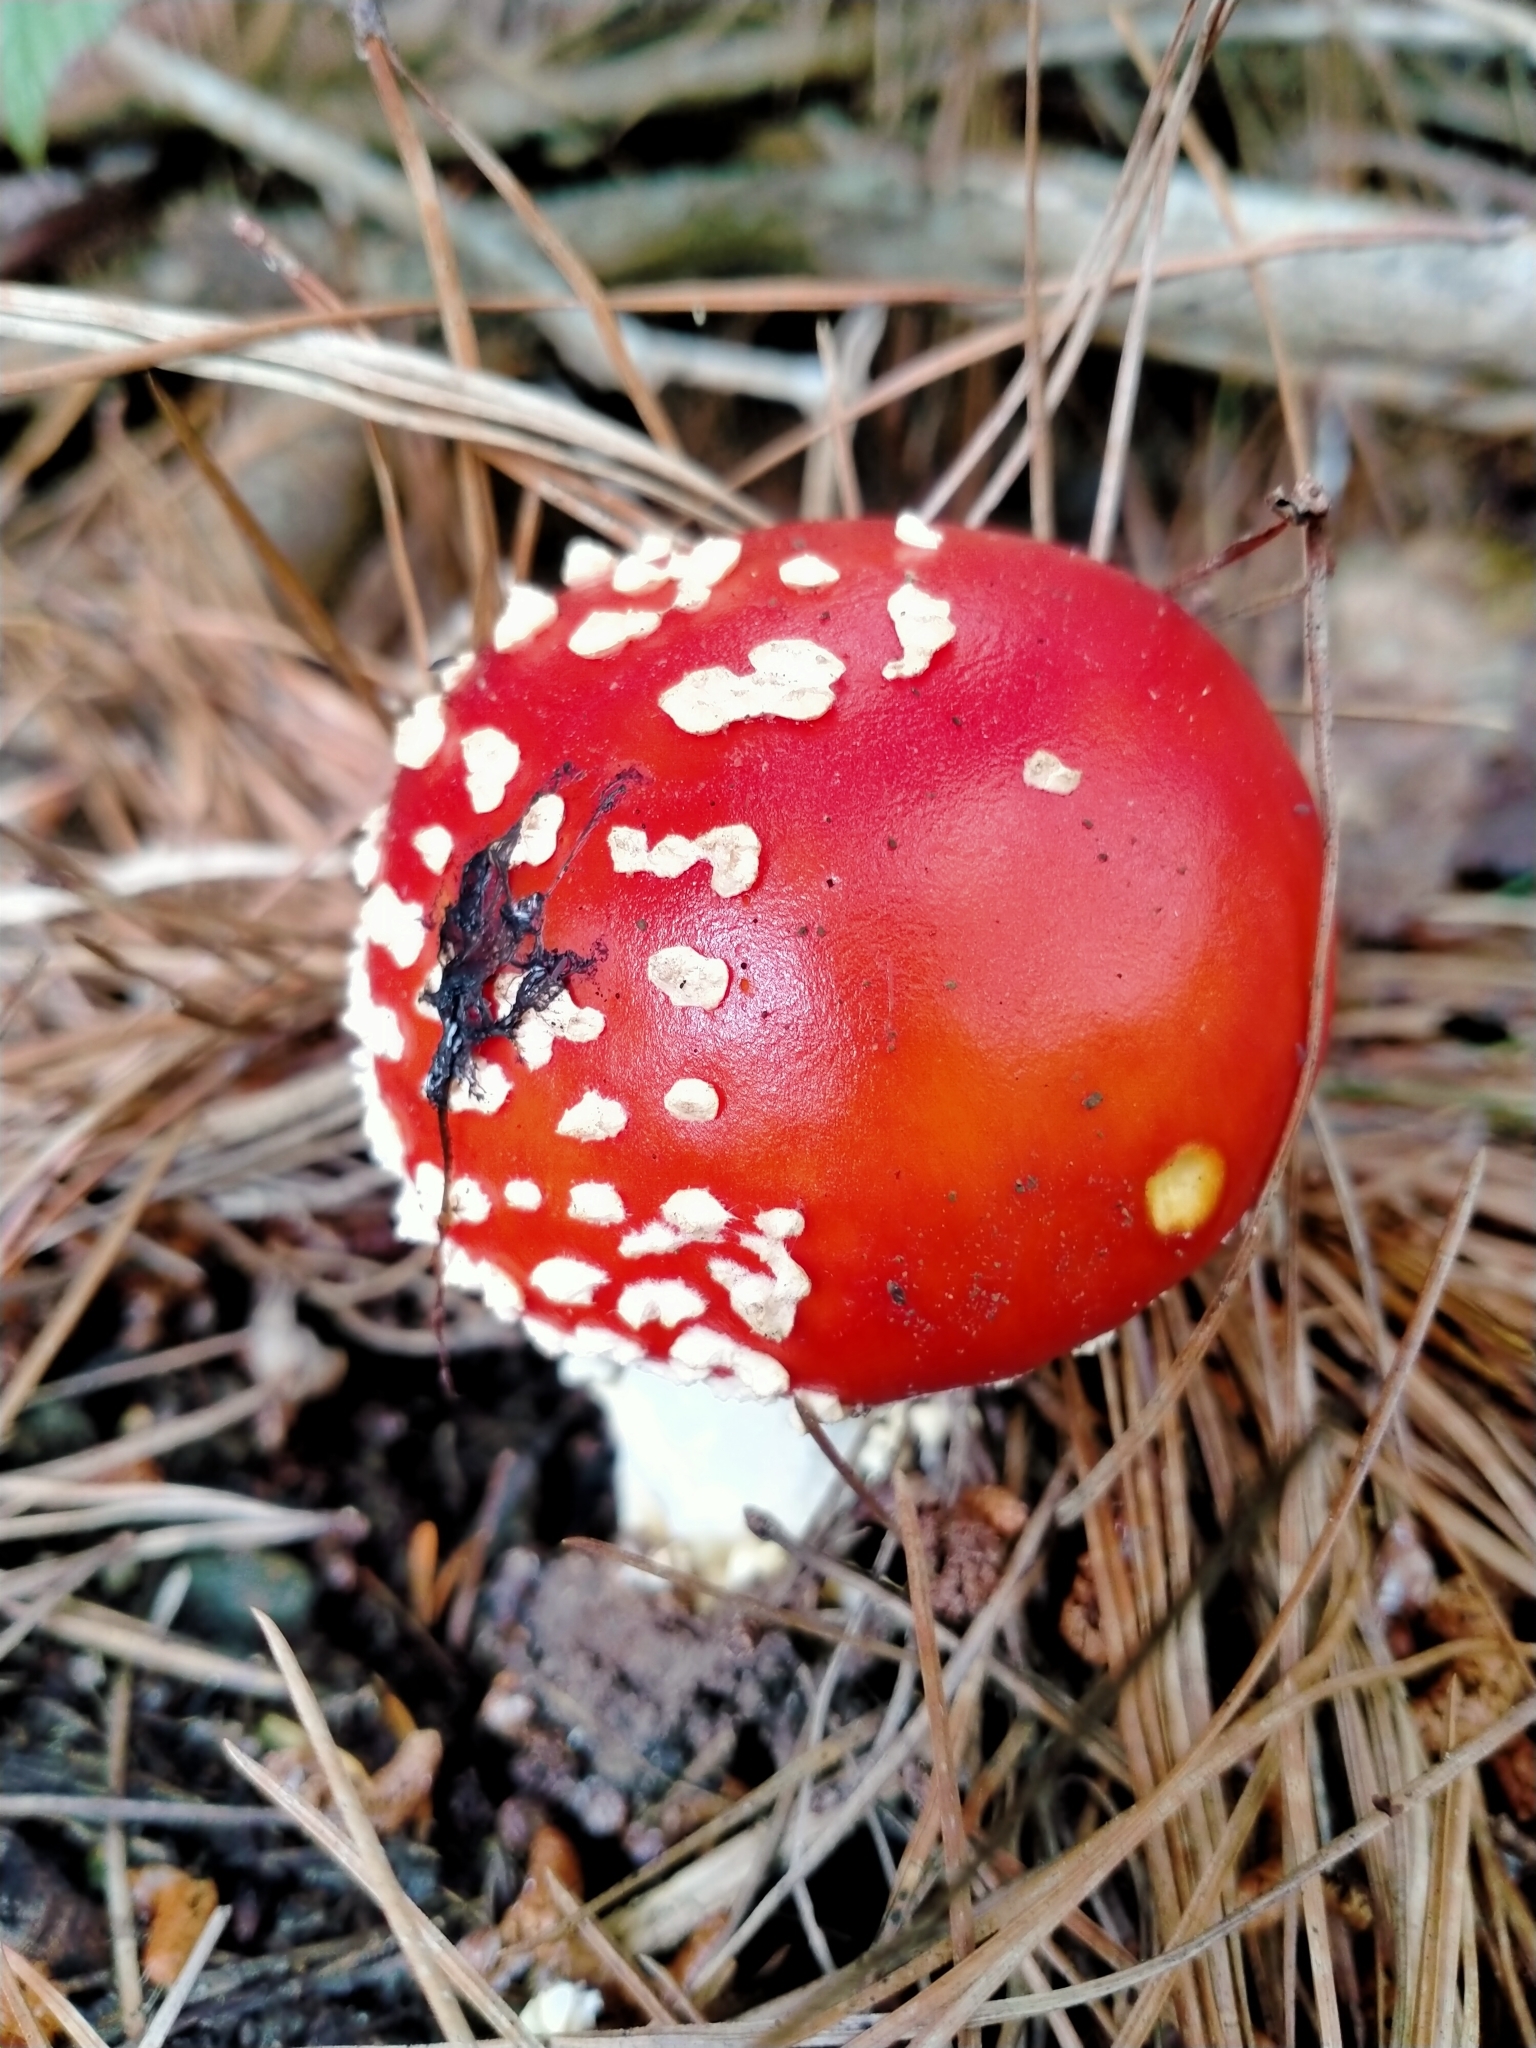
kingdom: Fungi
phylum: Basidiomycota
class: Agaricomycetes
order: Agaricales
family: Amanitaceae
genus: Amanita
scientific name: Amanita muscaria
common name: Fly agaric
